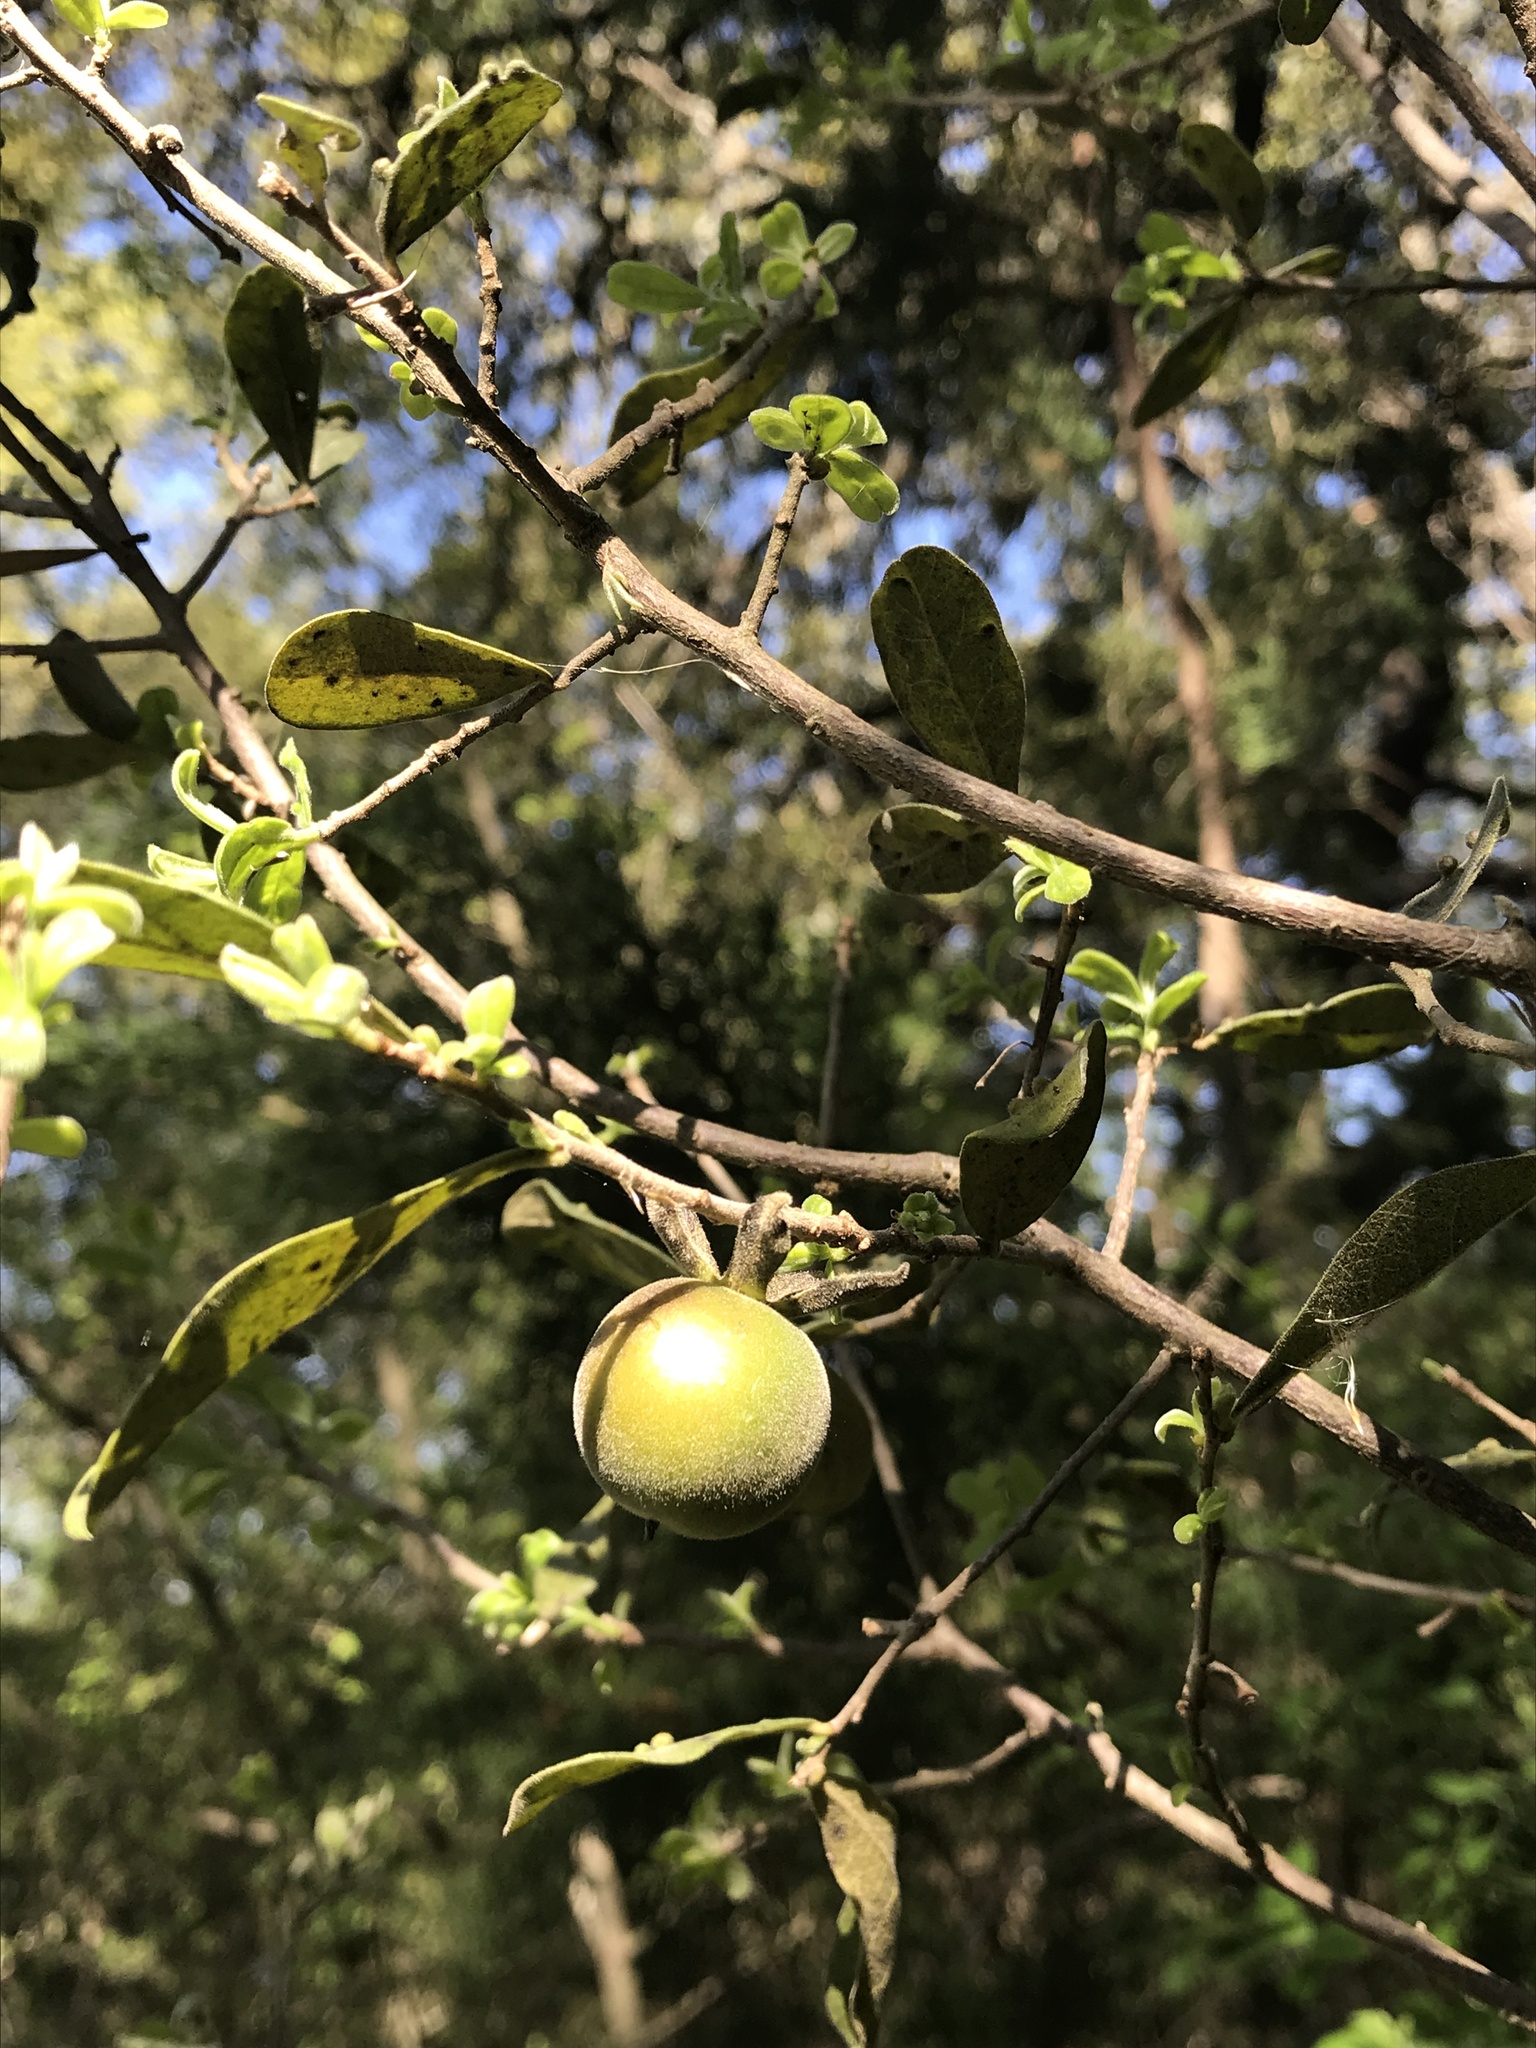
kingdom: Plantae
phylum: Tracheophyta
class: Magnoliopsida
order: Ericales
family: Ebenaceae
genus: Diospyros
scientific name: Diospyros texana
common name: Texas persimmon
